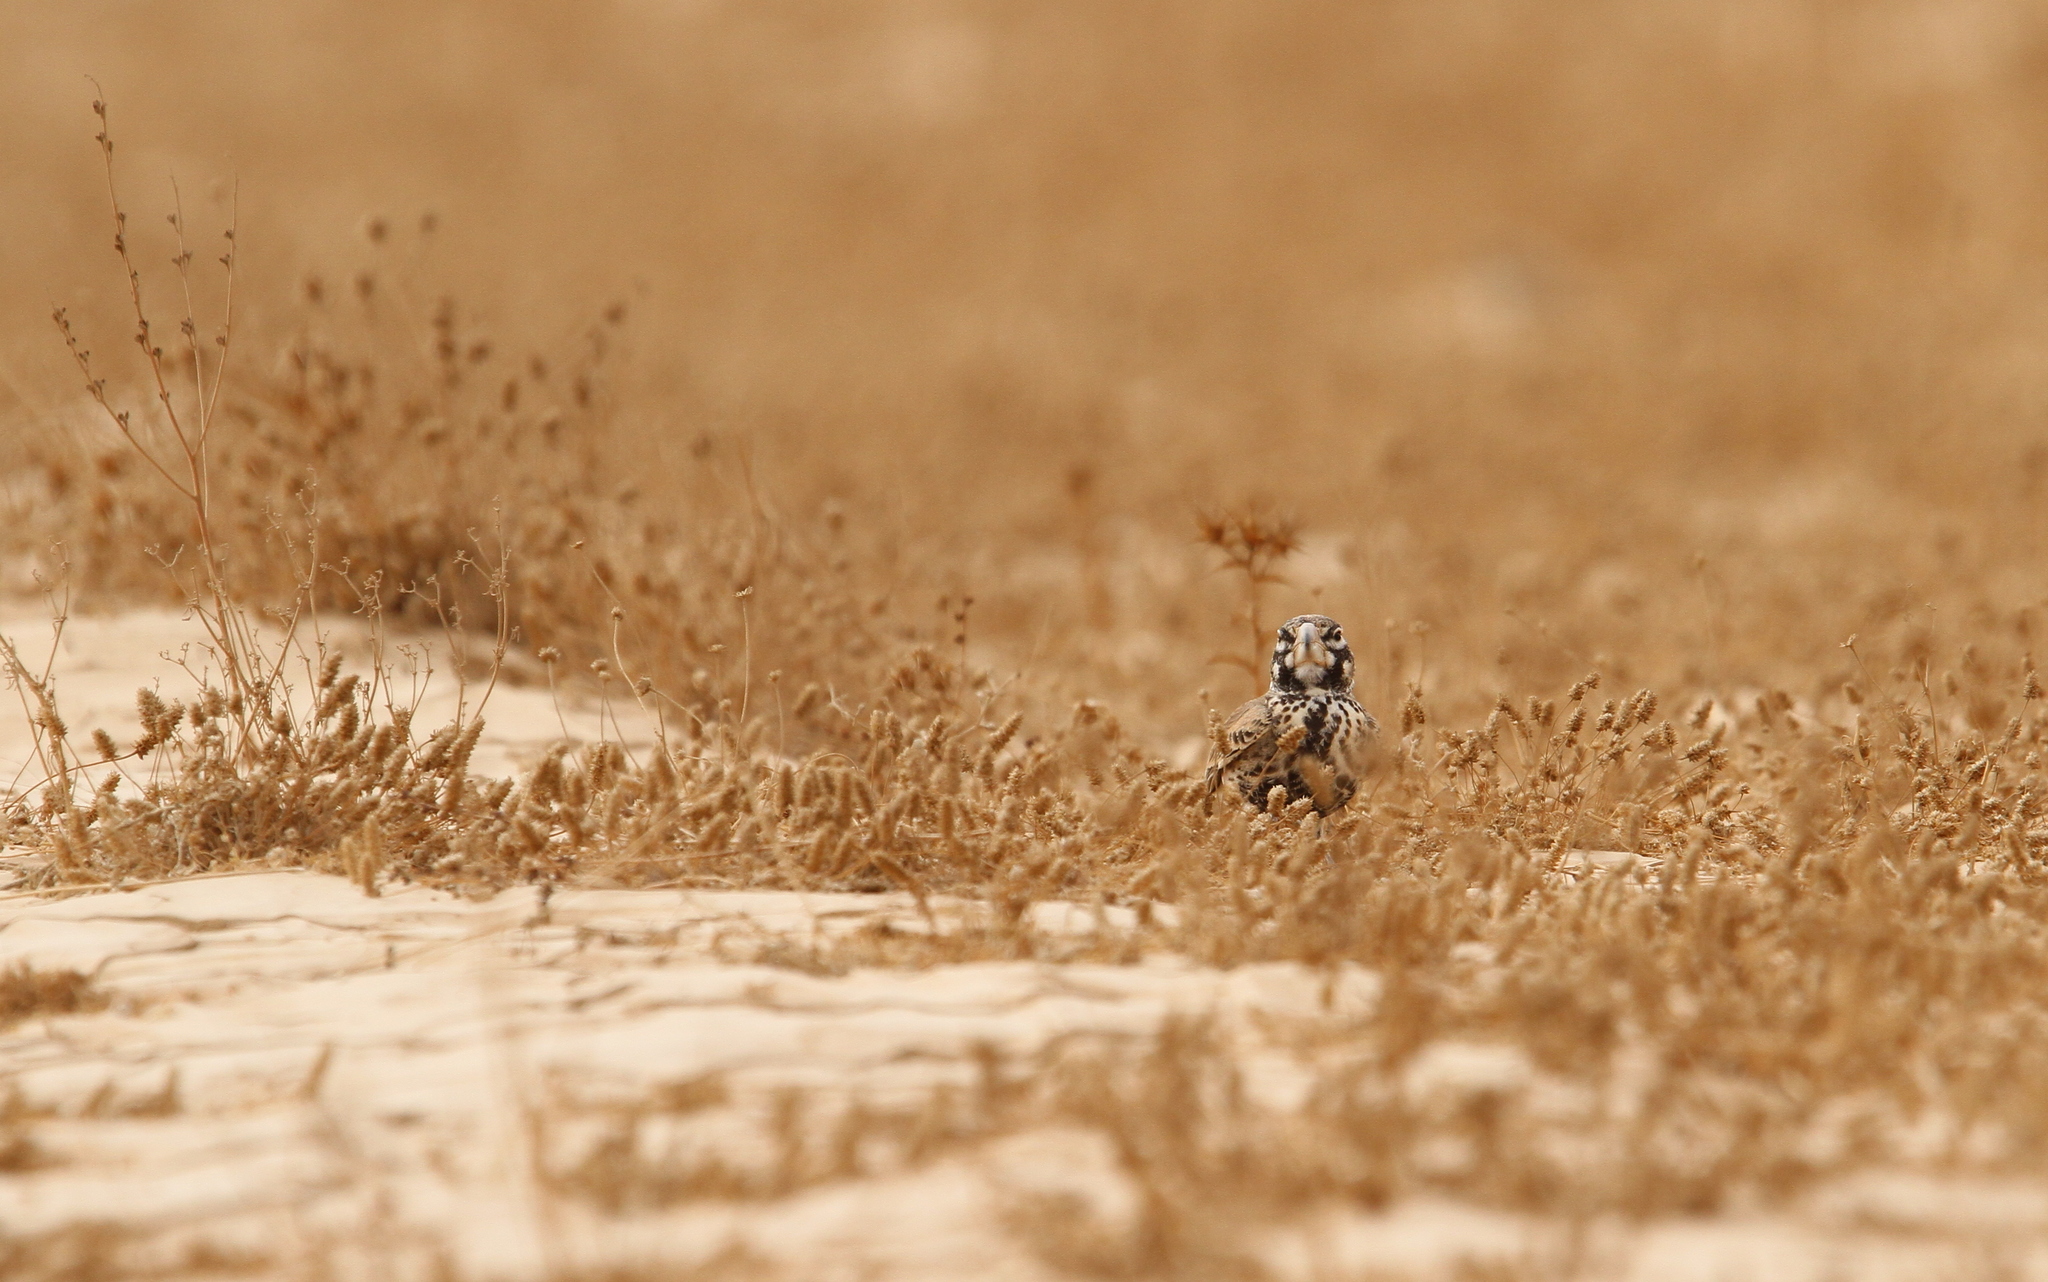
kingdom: Animalia
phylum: Chordata
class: Aves
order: Passeriformes
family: Alaudidae
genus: Ramphocoris
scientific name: Ramphocoris clotbey
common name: Thick-billed lark
